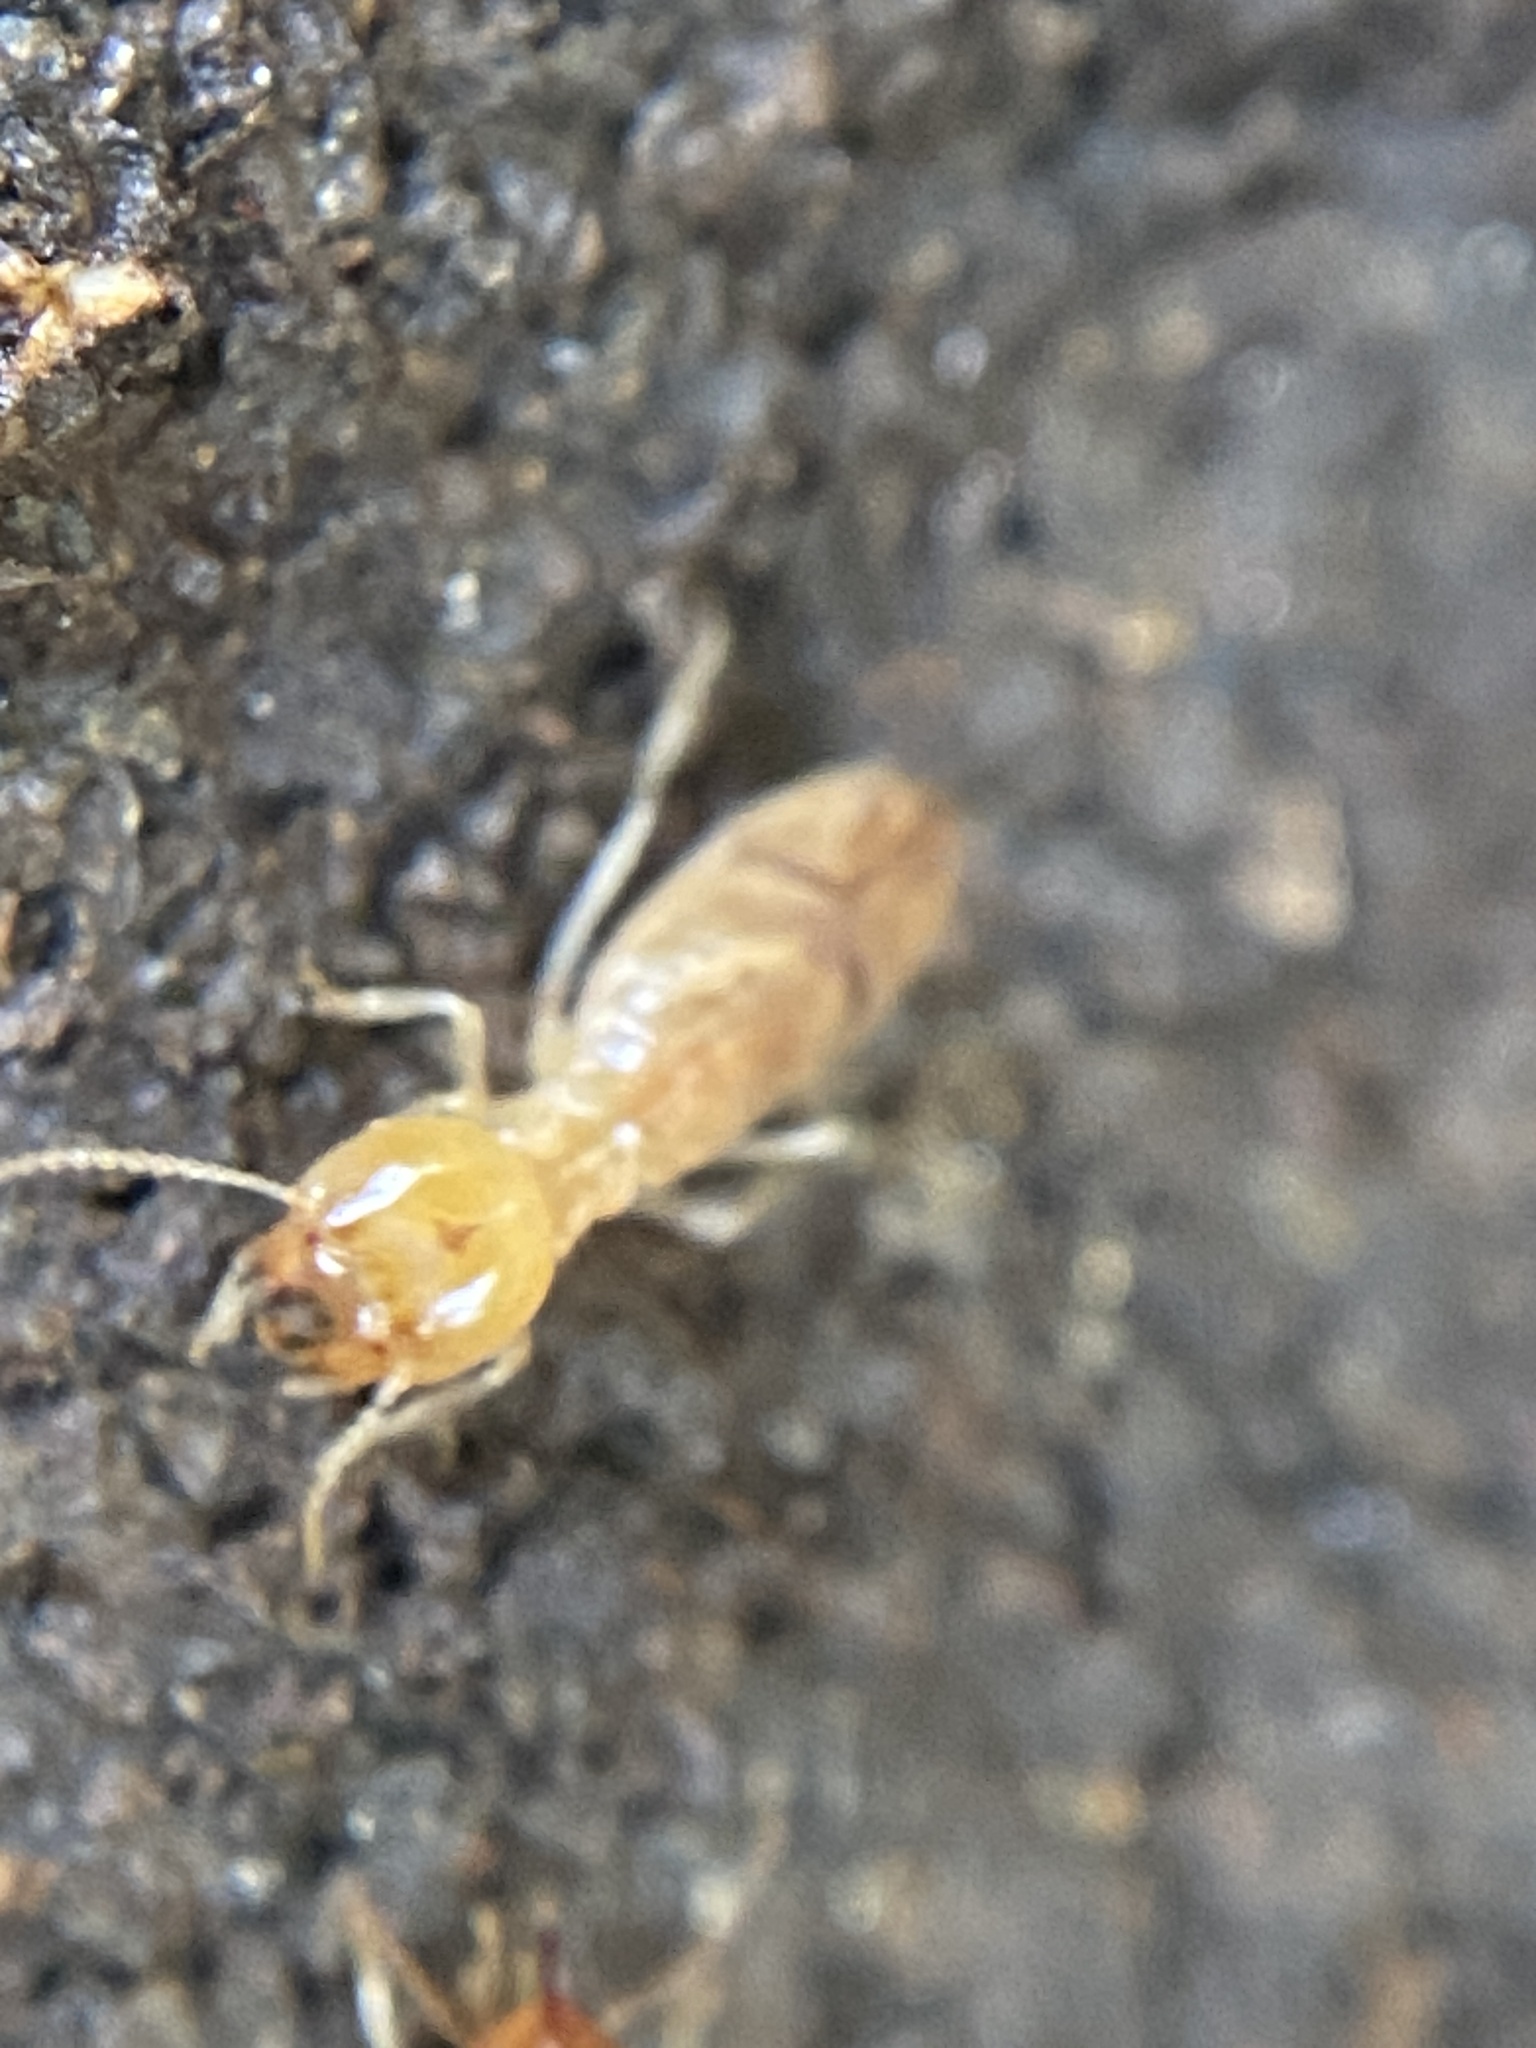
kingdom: Animalia
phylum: Arthropoda
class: Insecta
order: Blattodea
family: Termitidae
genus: Cortaritermes
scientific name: Cortaritermes fulviceps
